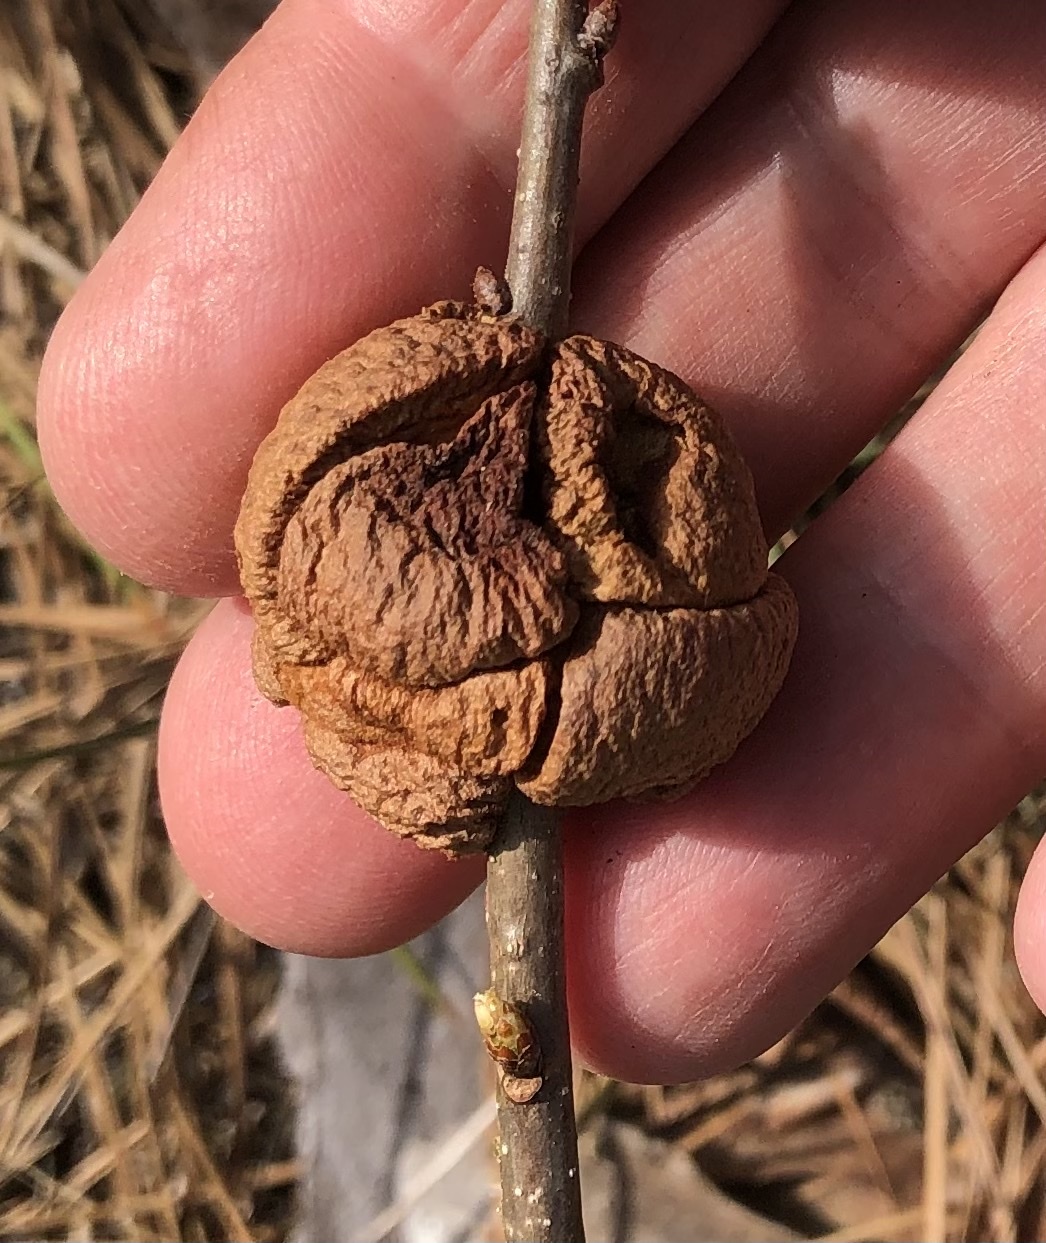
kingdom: Animalia
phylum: Arthropoda
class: Insecta
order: Hymenoptera
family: Cynipidae
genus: Disholcaspis
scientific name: Disholcaspis
